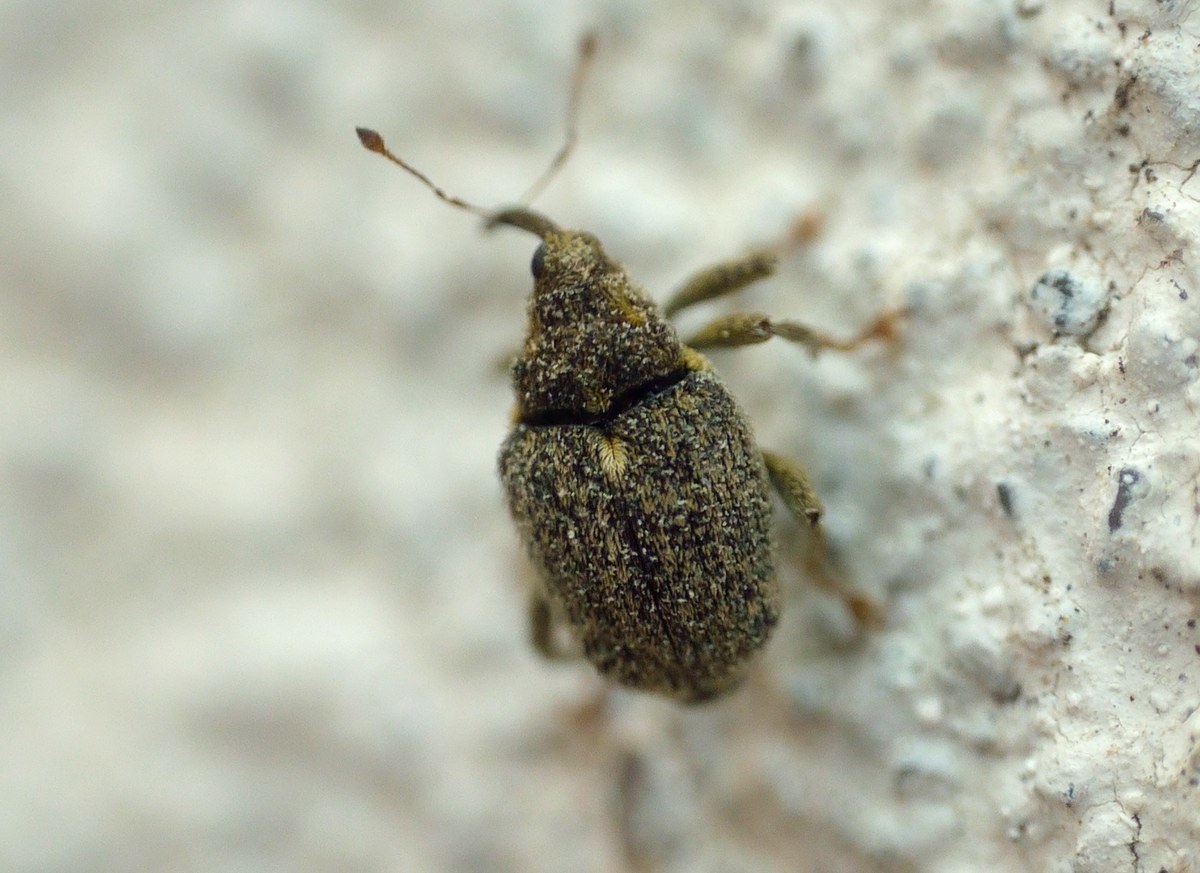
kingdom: Animalia
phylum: Arthropoda
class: Insecta
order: Coleoptera
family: Curculionidae
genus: Ceutorhynchus
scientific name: Ceutorhynchus pallidactylus
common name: Cabbage stem weavil
